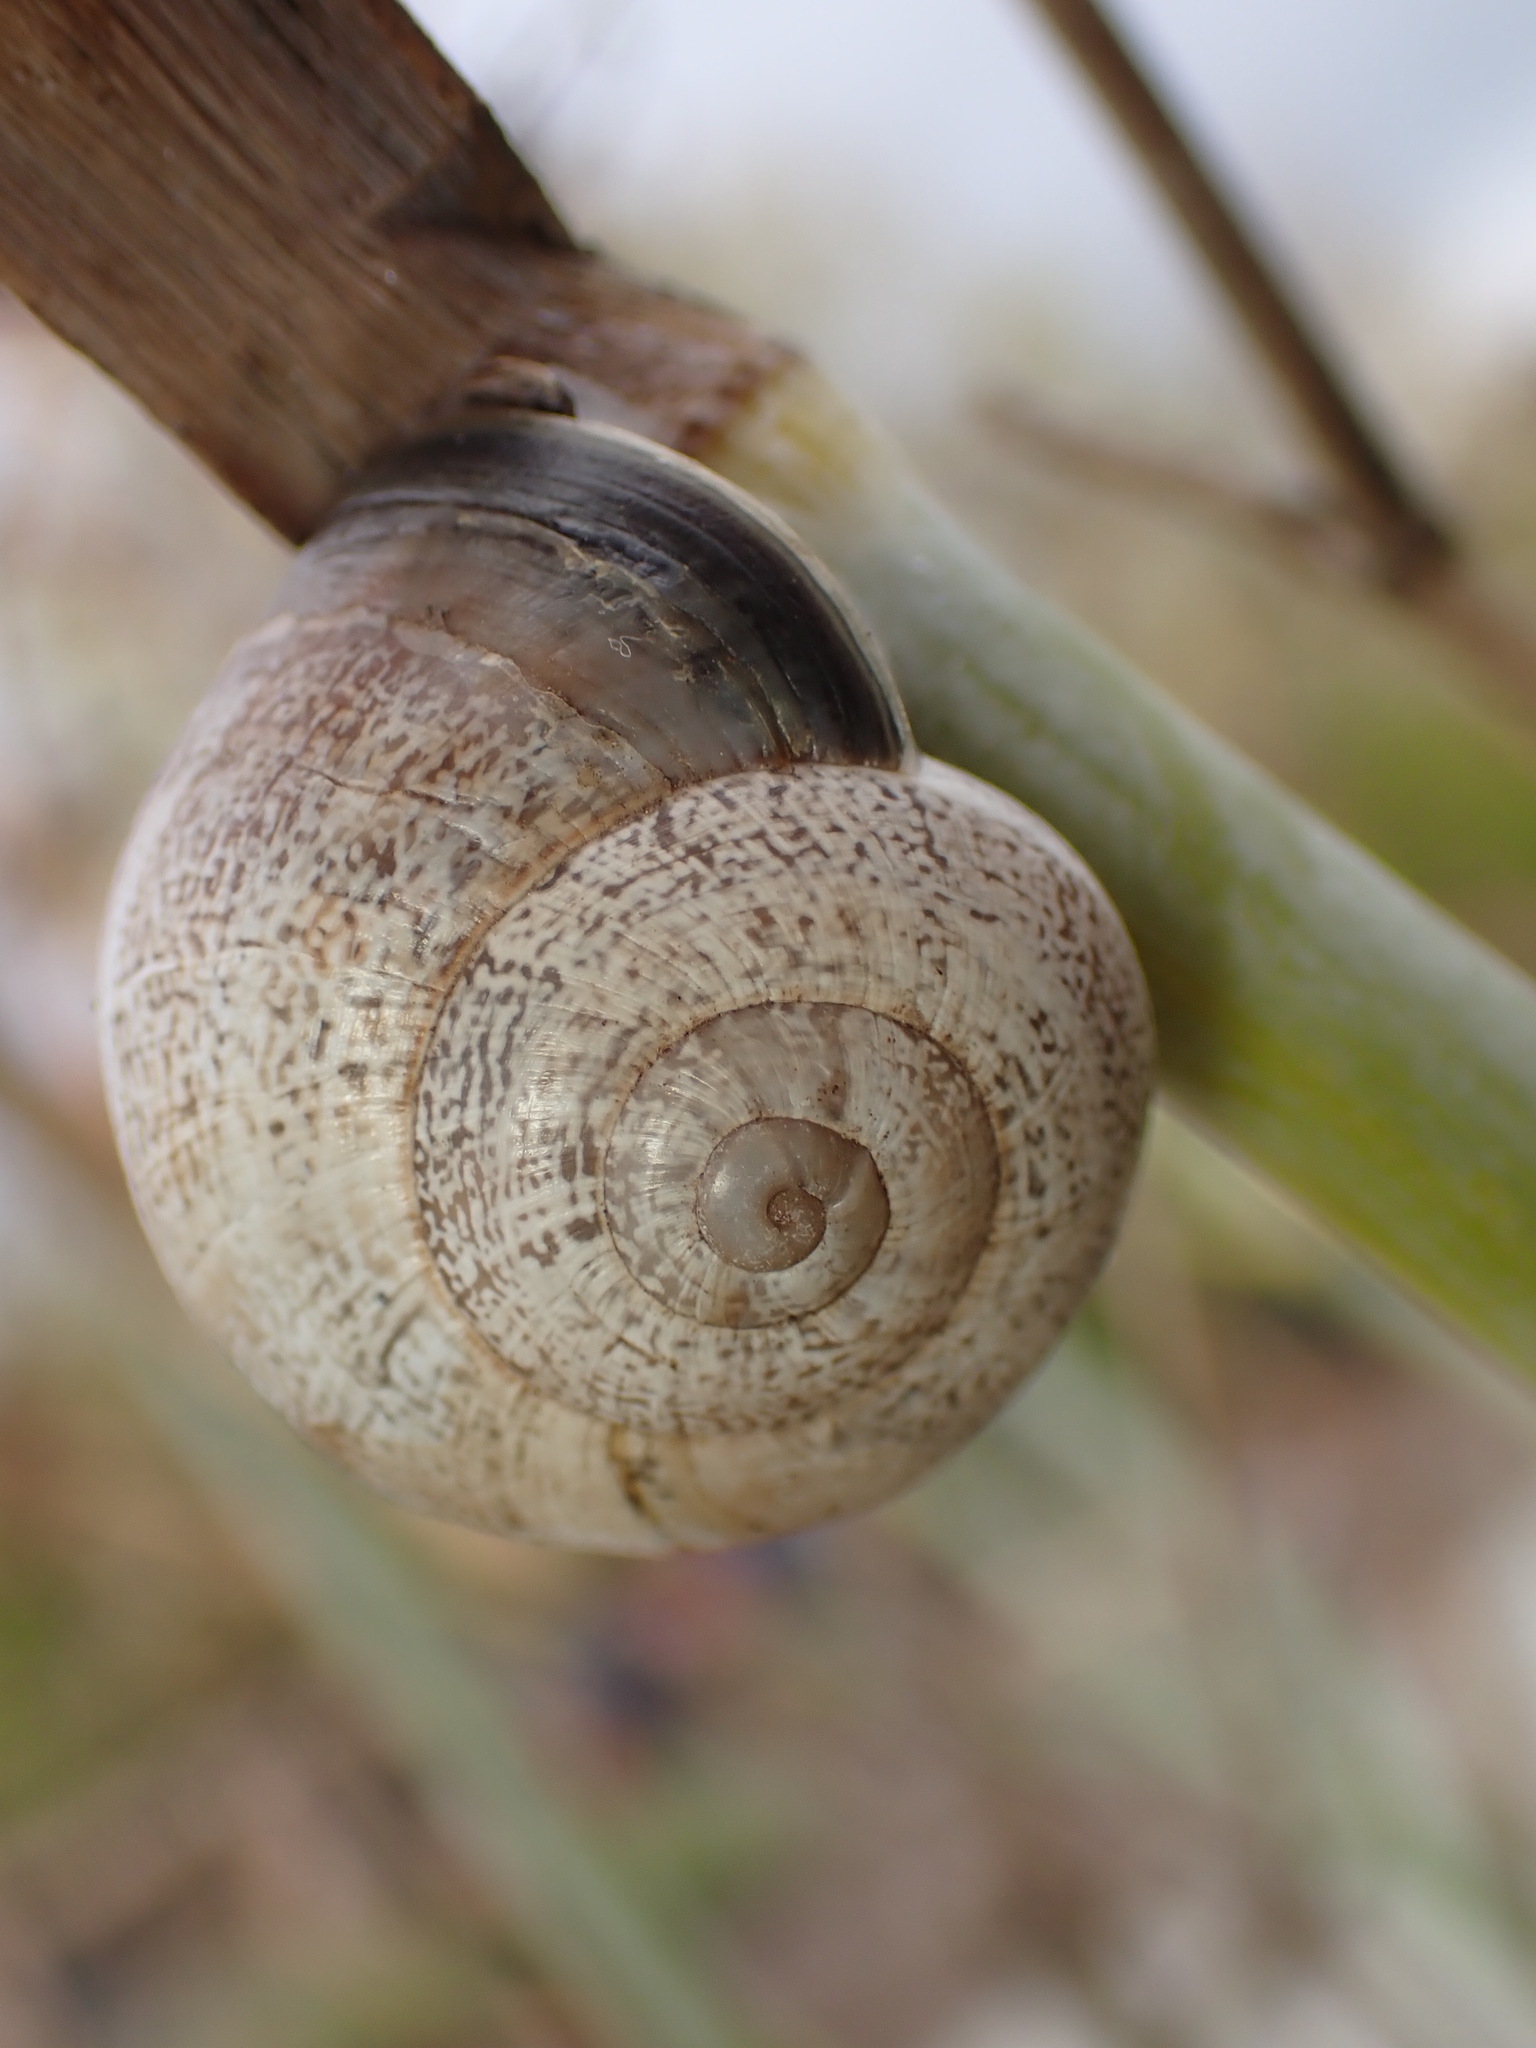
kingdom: Animalia
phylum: Mollusca
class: Gastropoda
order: Stylommatophora
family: Helicidae
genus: Otala
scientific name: Otala lactea
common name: Milk snail
